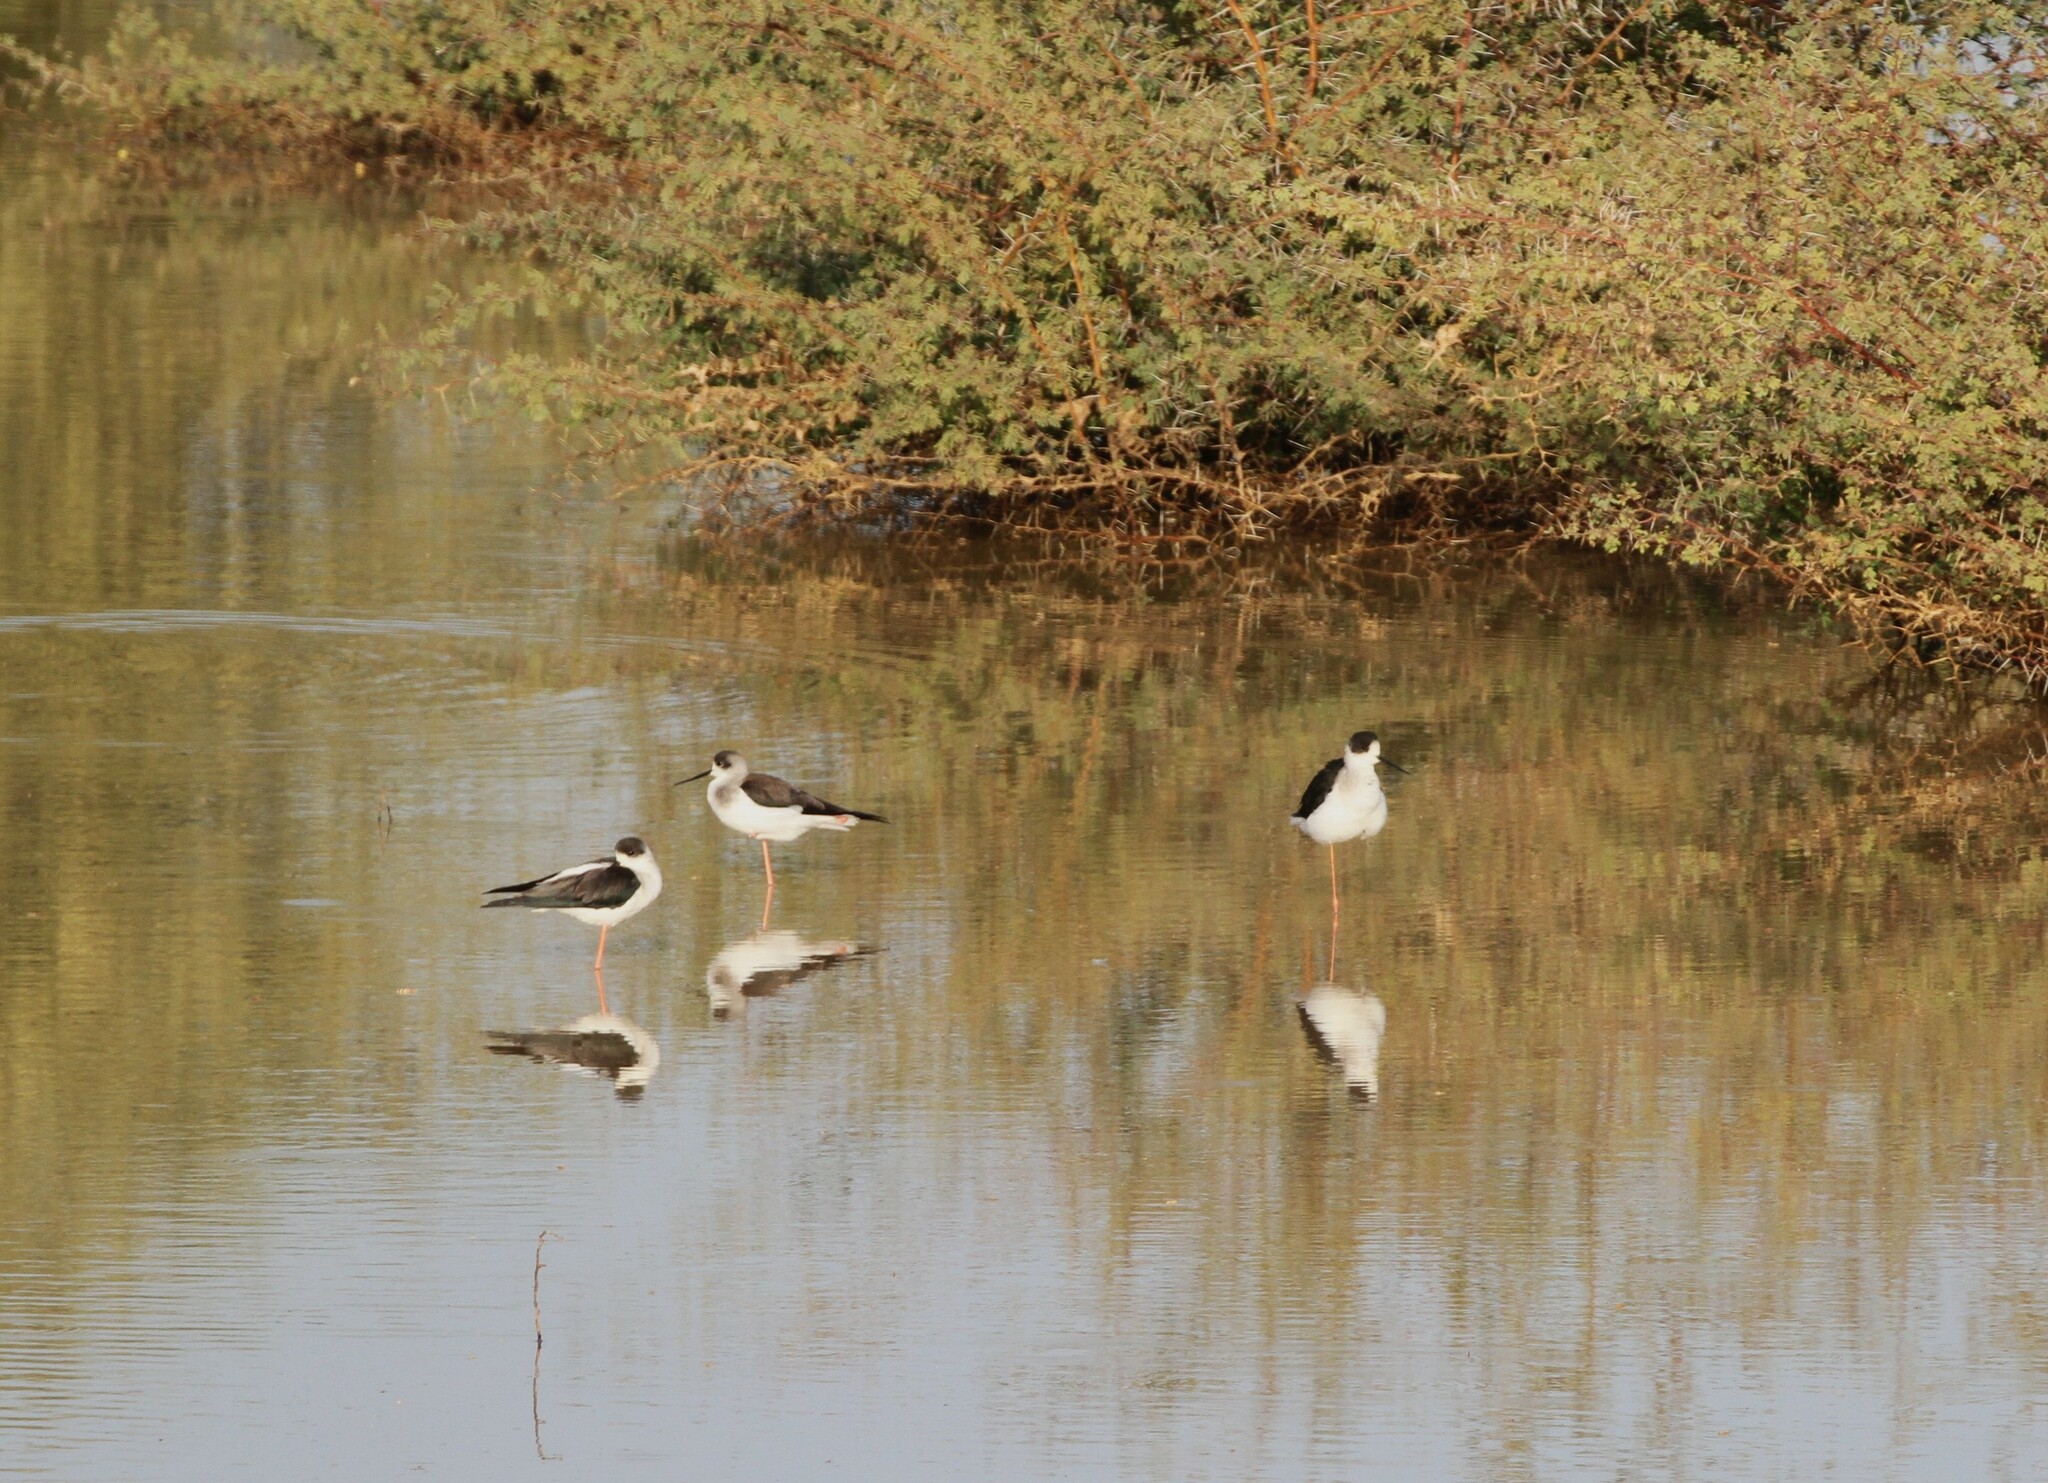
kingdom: Animalia
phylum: Chordata
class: Aves
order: Charadriiformes
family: Recurvirostridae
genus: Himantopus
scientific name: Himantopus himantopus
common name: Black-winged stilt
